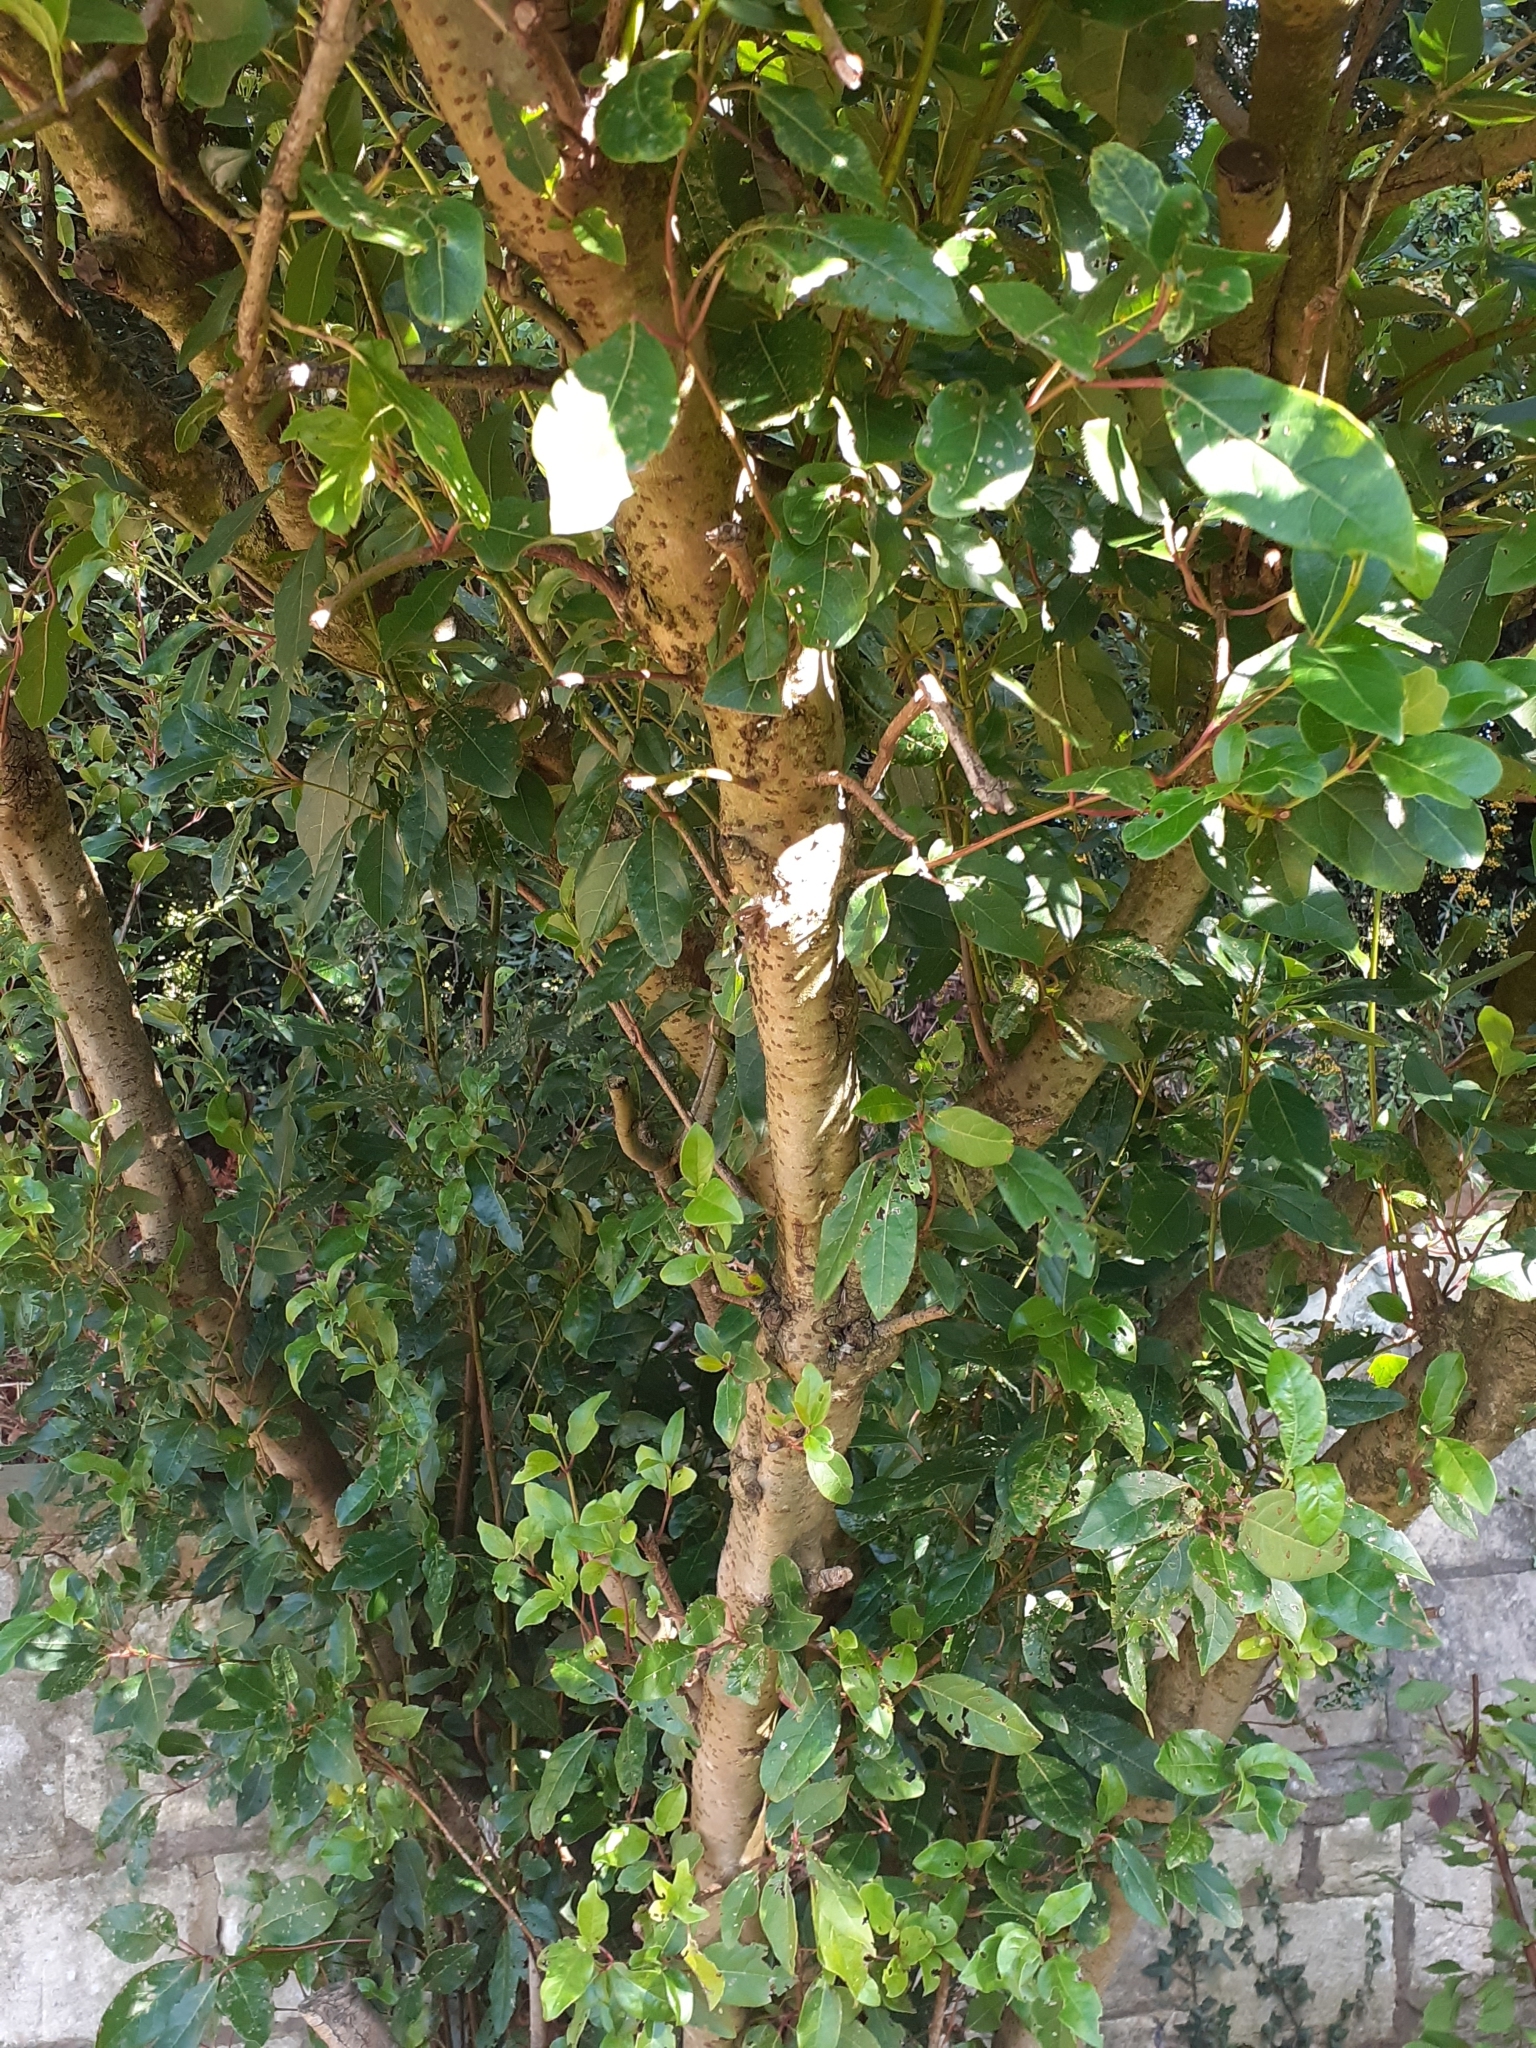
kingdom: Plantae
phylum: Tracheophyta
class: Magnoliopsida
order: Dipsacales
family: Viburnaceae
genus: Viburnum
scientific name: Viburnum tinus
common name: Laurustinus
